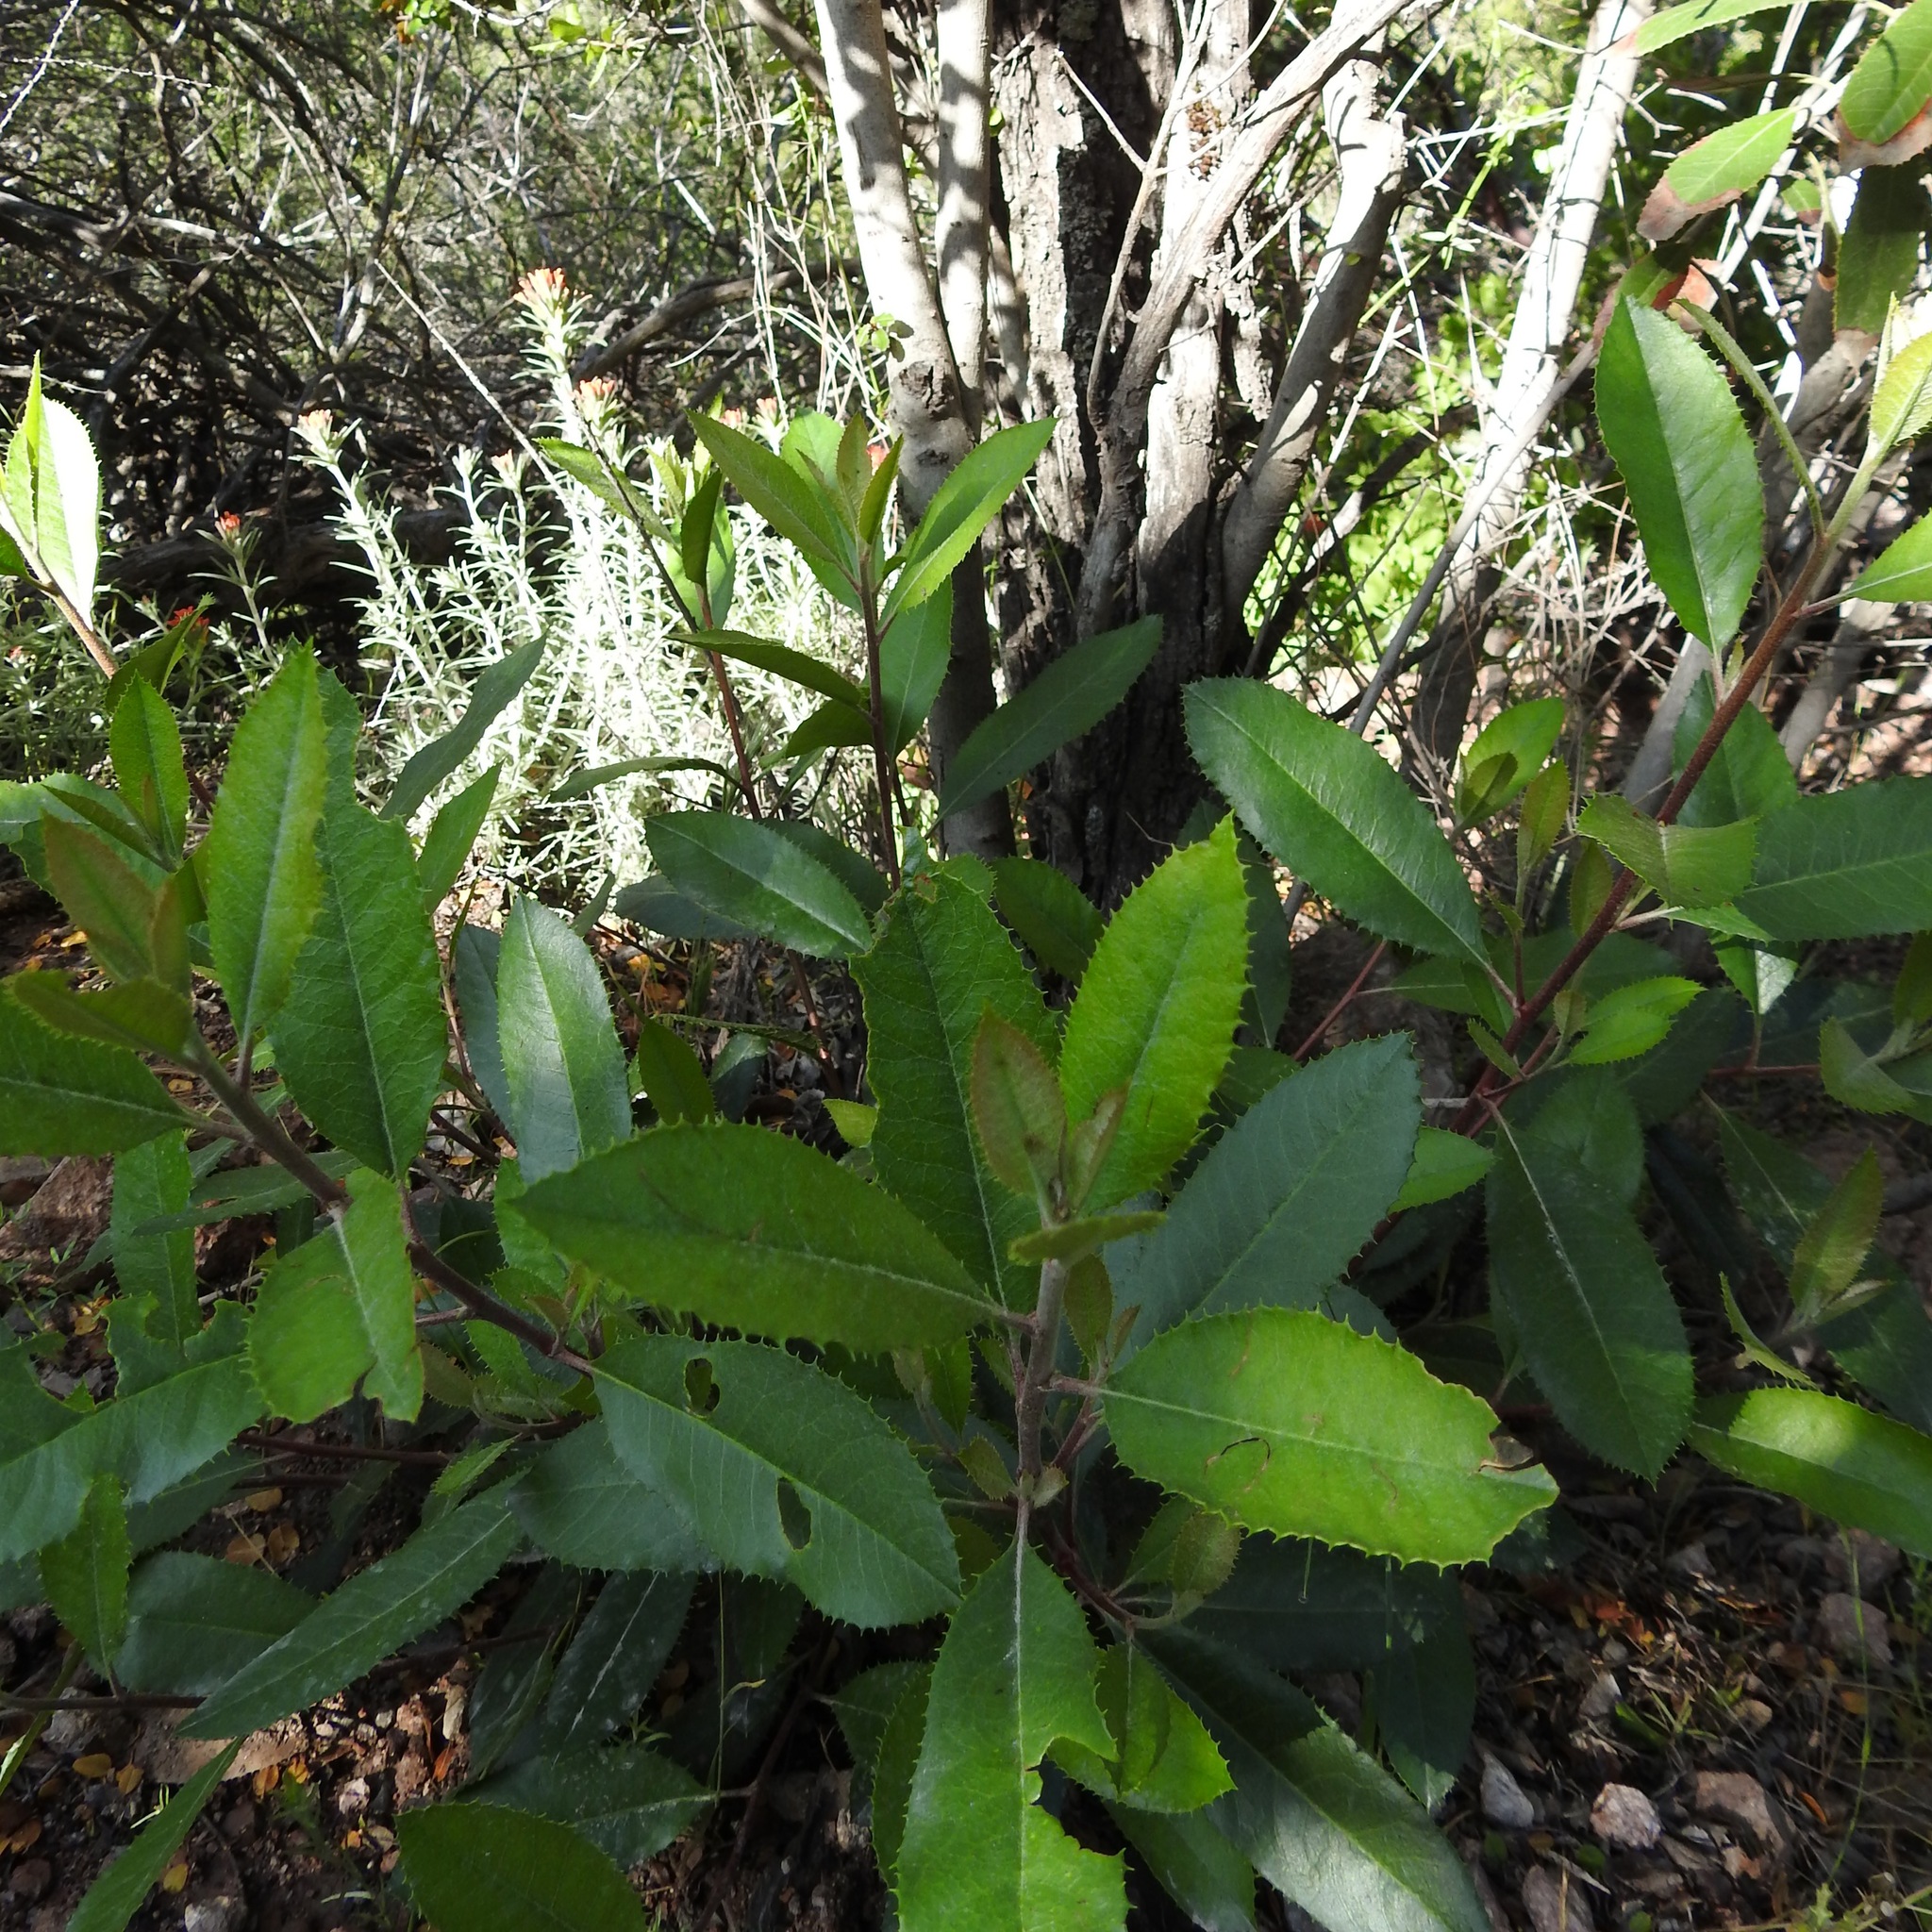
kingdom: Plantae
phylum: Tracheophyta
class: Magnoliopsida
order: Rosales
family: Rosaceae
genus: Heteromeles
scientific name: Heteromeles arbutifolia
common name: California-holly
